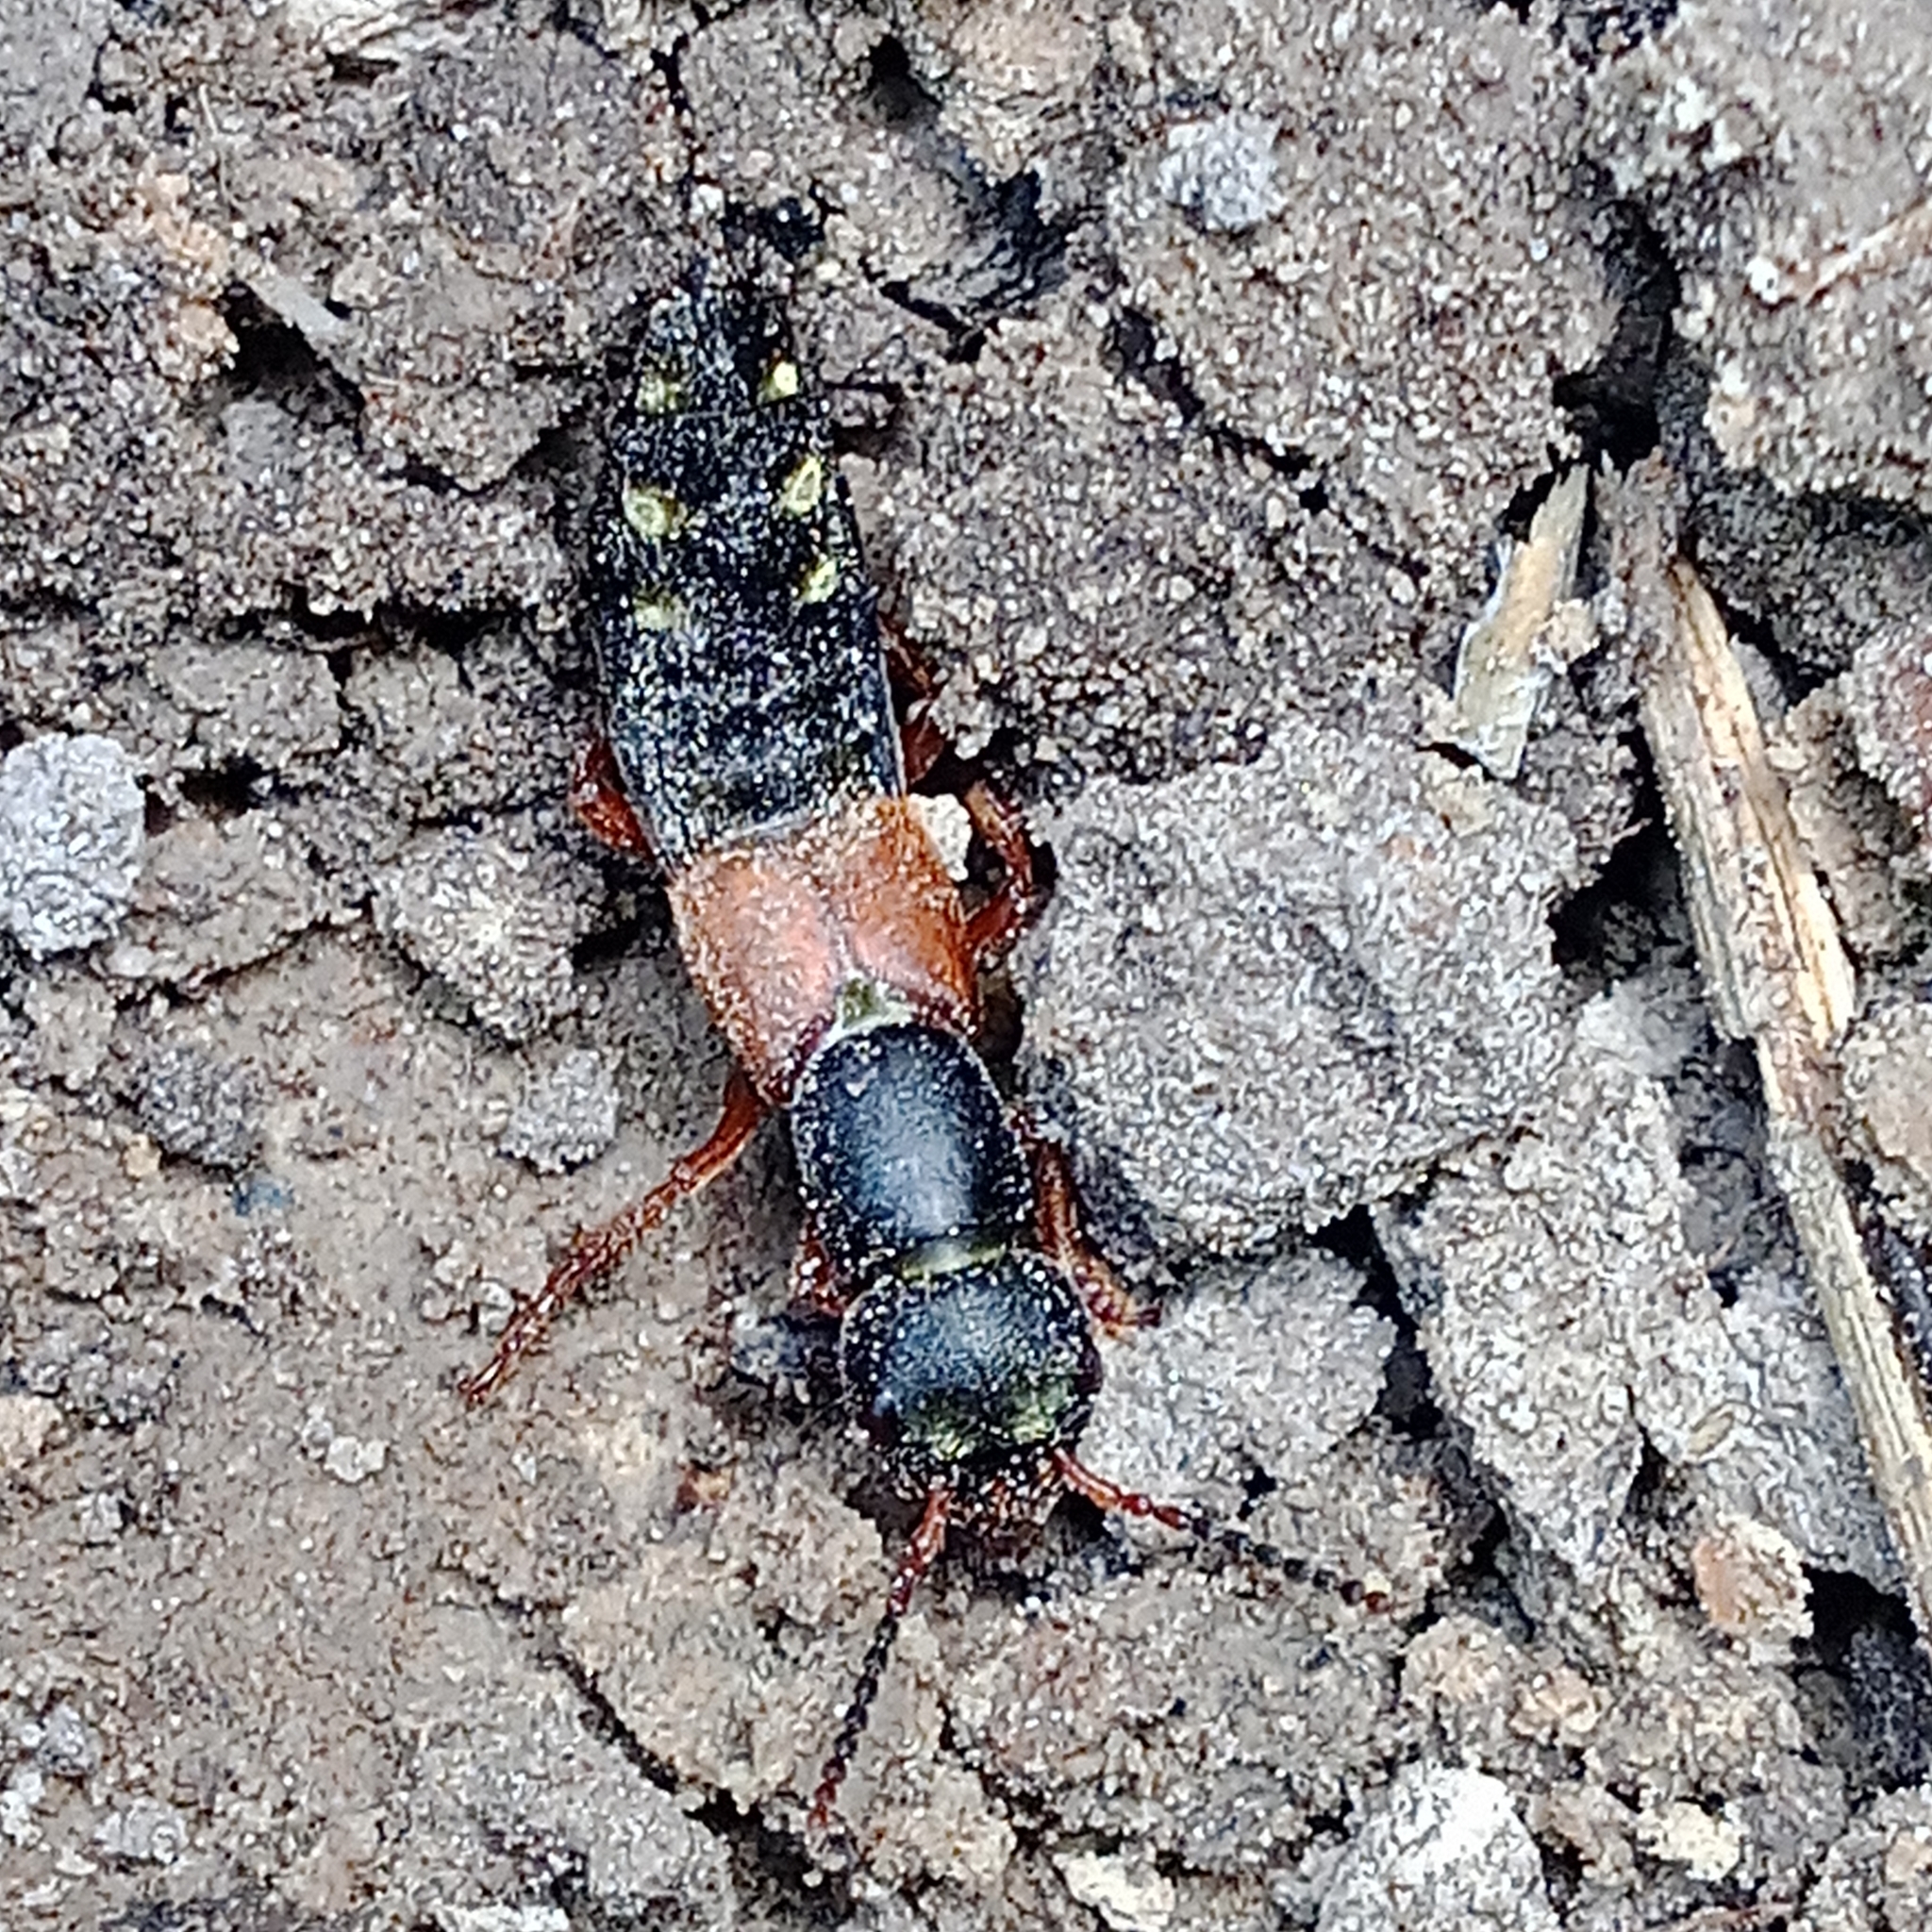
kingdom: Animalia
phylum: Arthropoda
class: Insecta
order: Coleoptera
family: Staphylinidae
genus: Staphylinus
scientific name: Staphylinus erythropterus
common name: Staph beetle
